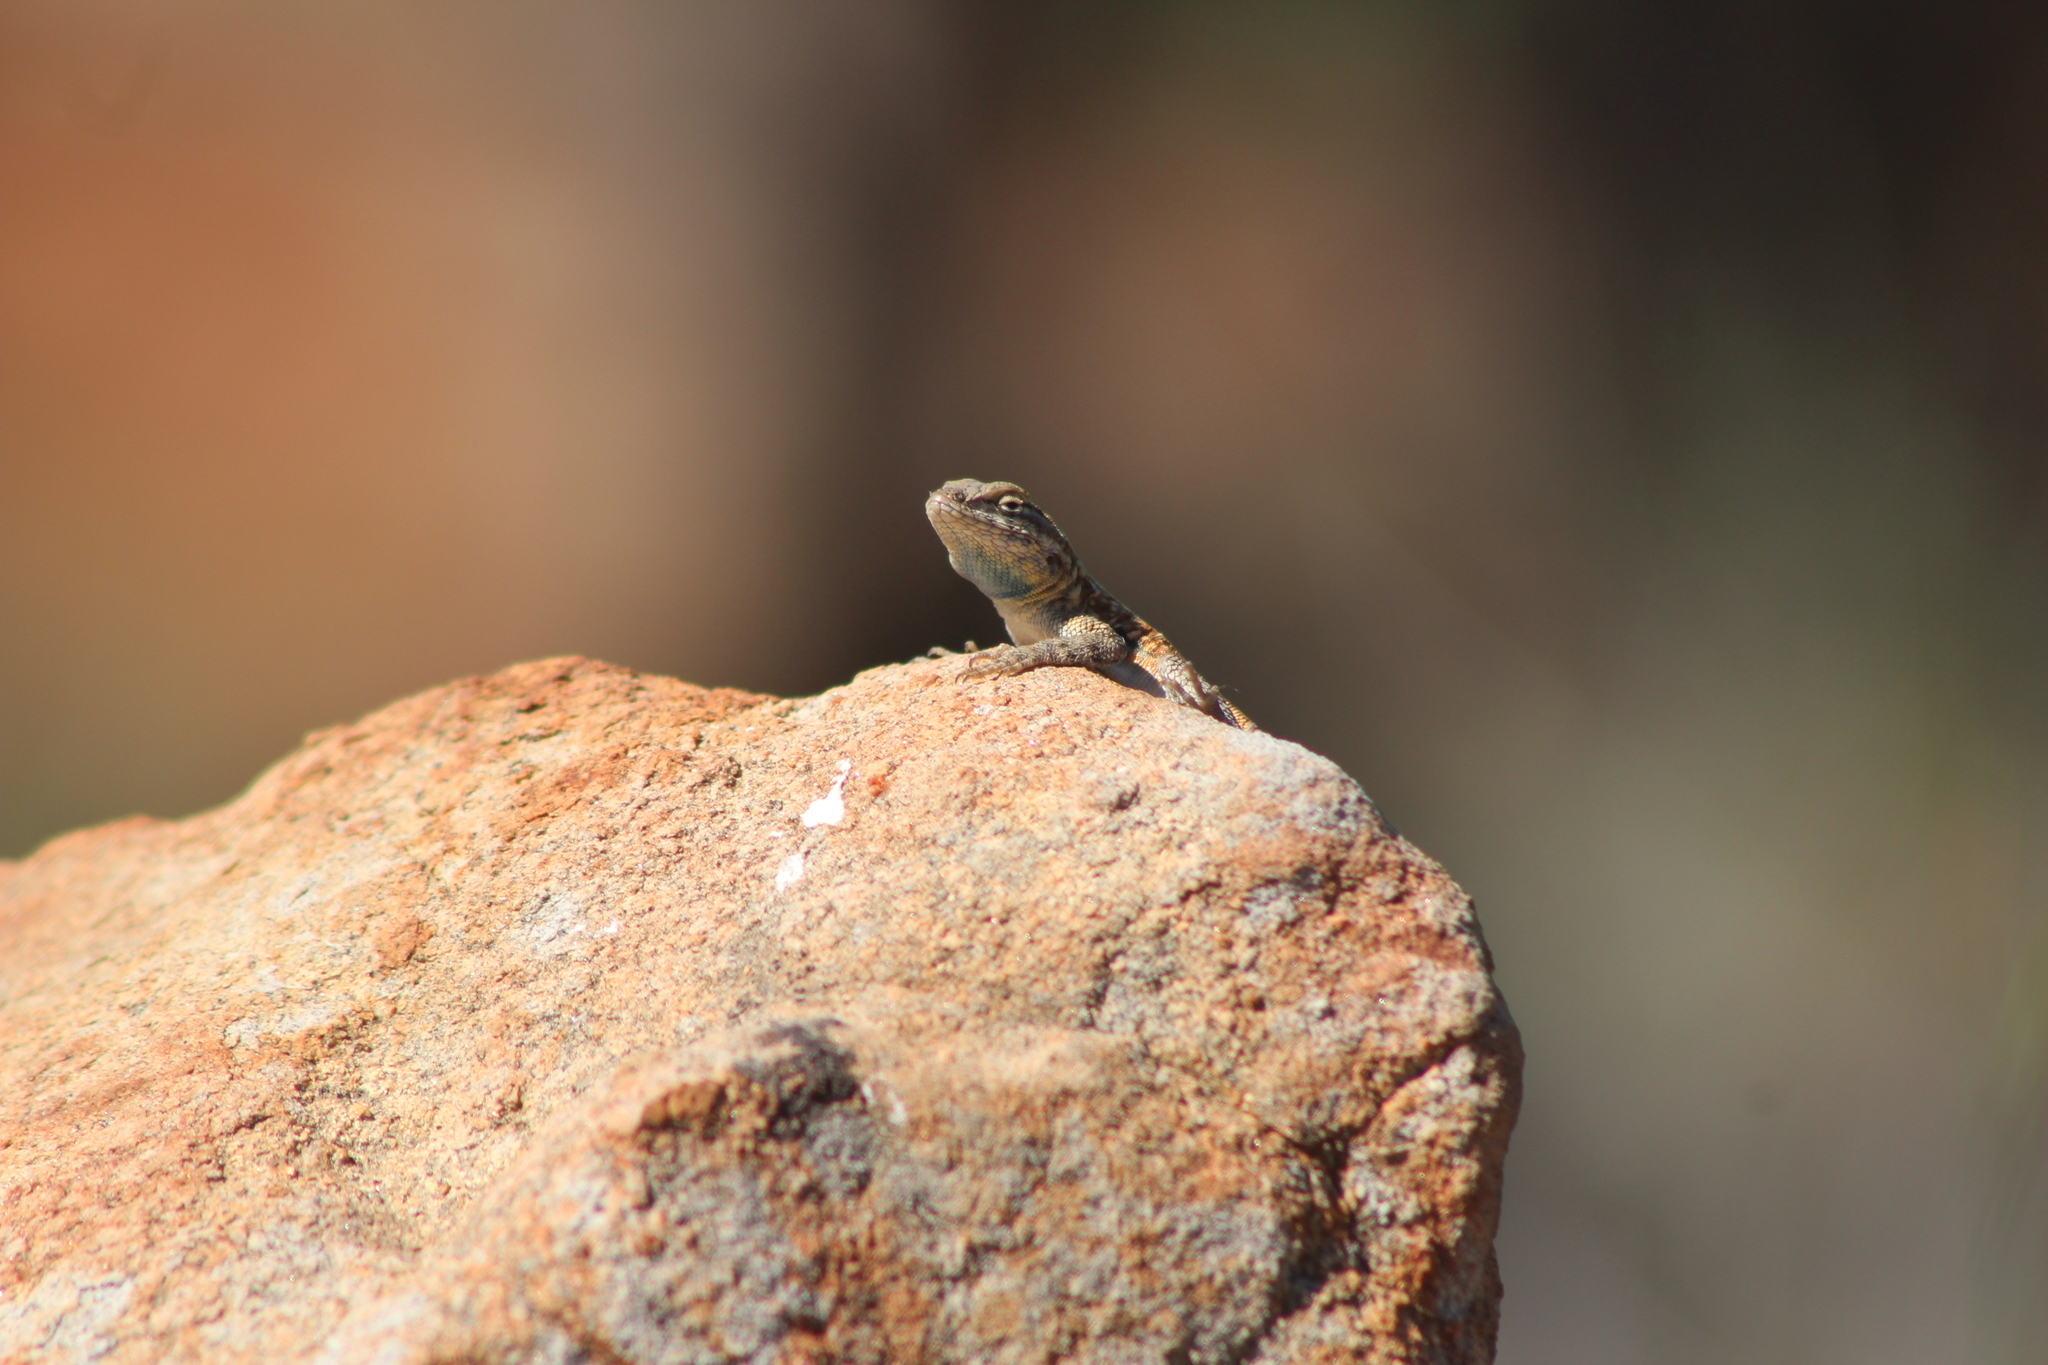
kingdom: Animalia
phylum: Chordata
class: Squamata
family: Phrynosomatidae
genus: Uta
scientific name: Uta stansburiana
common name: Side-blotched lizard
